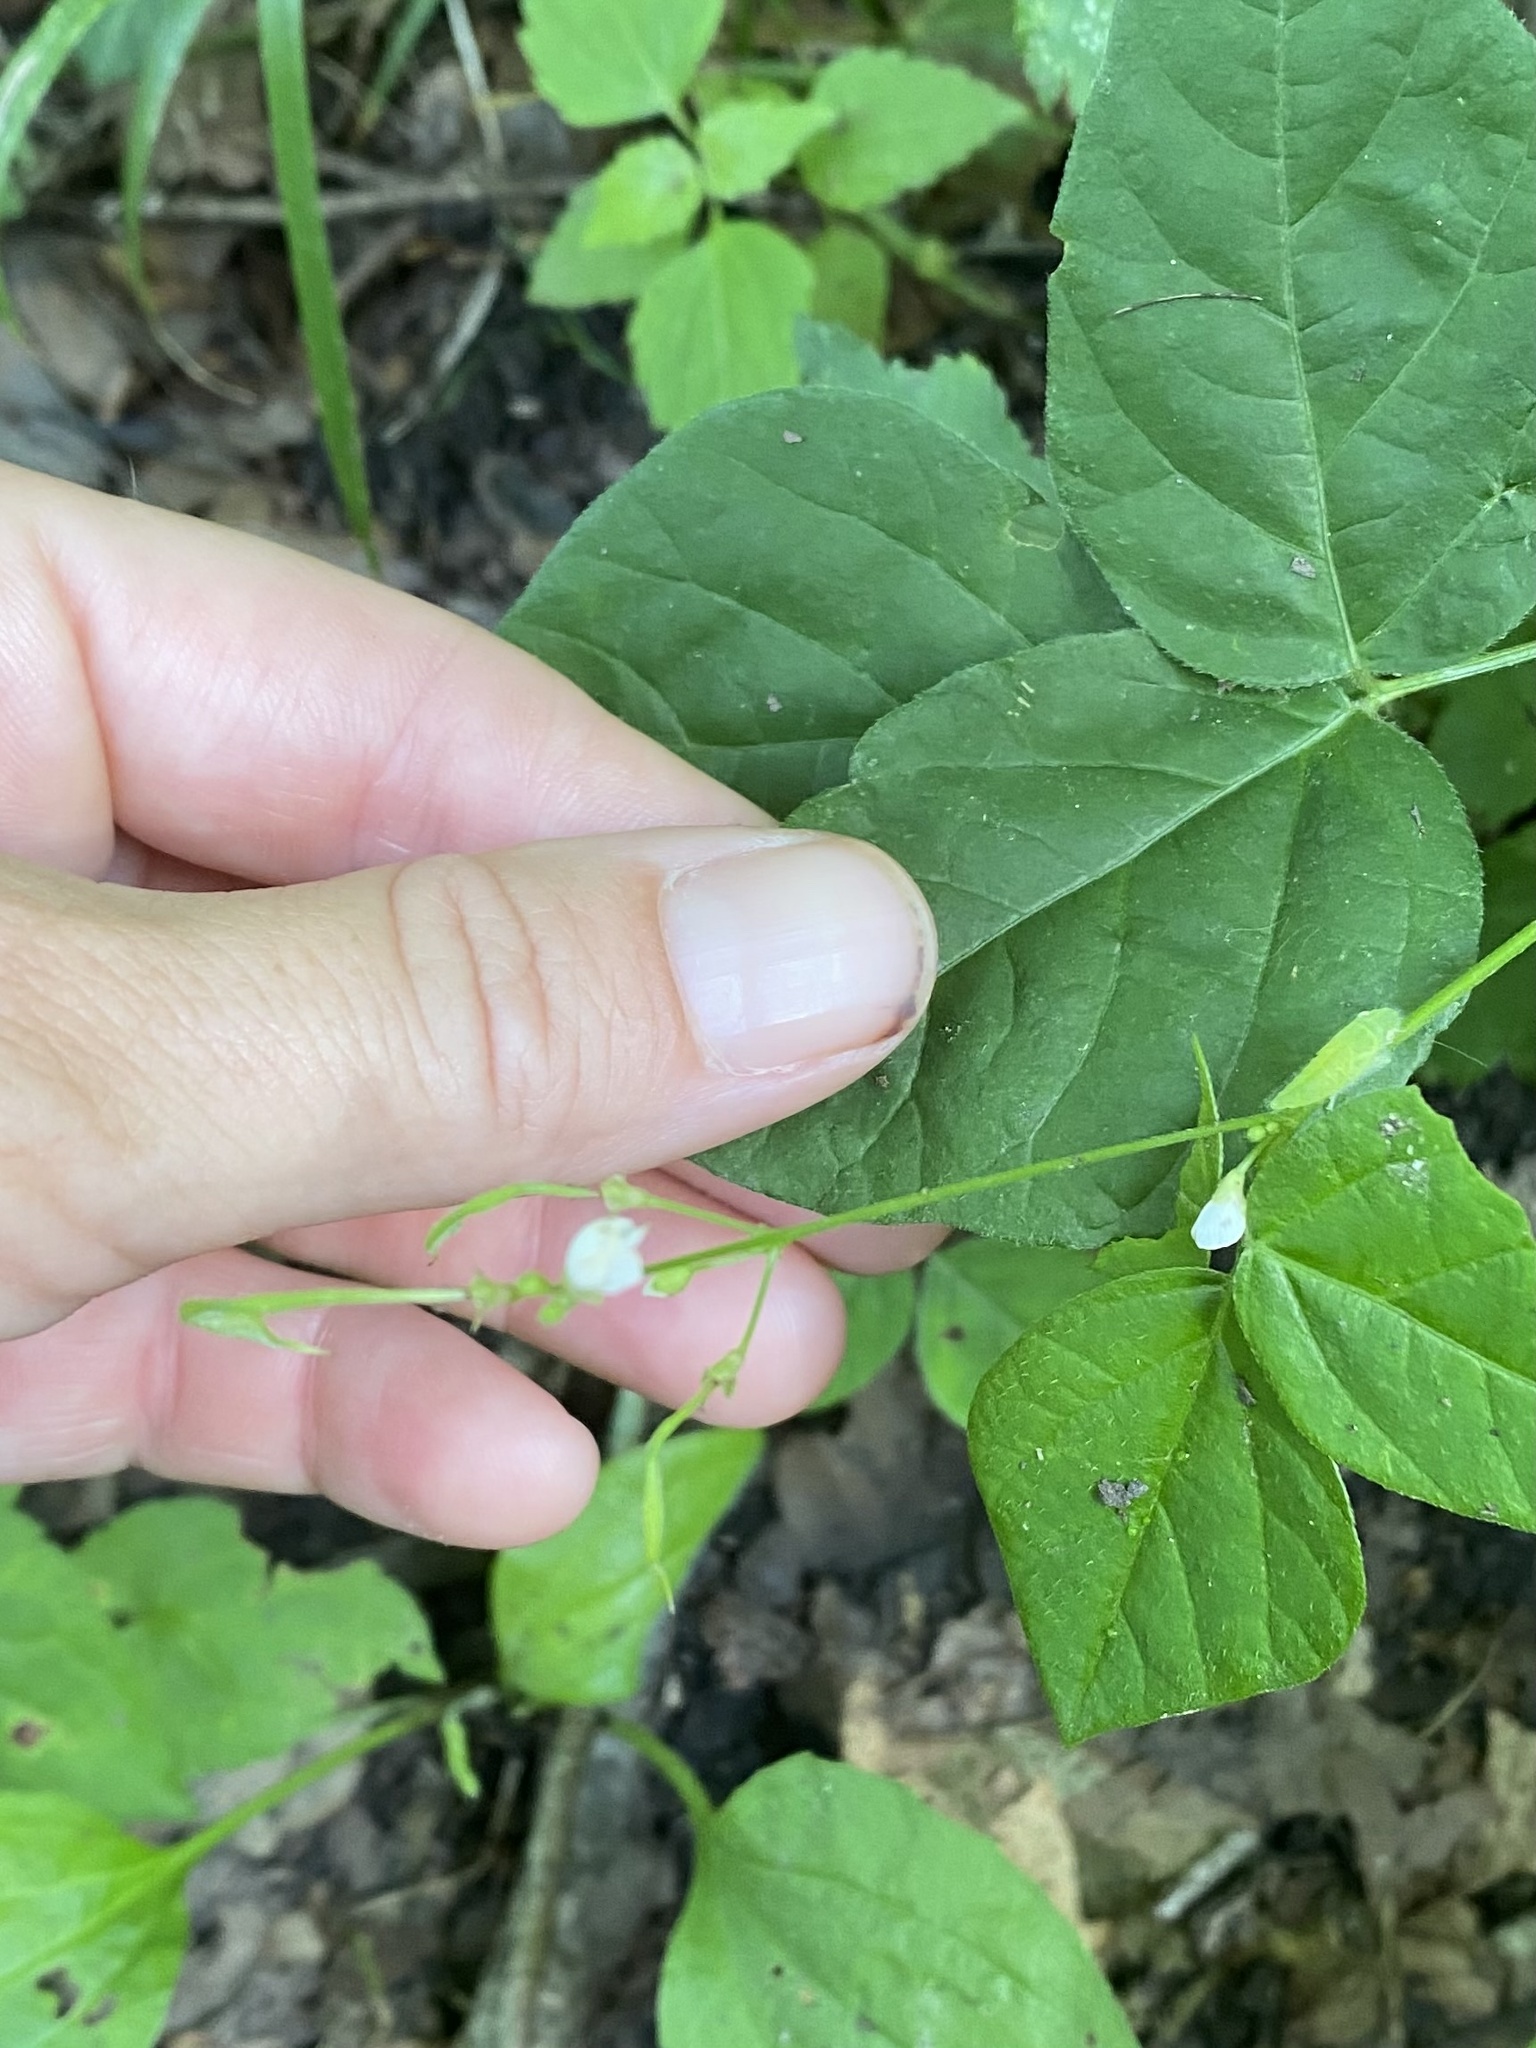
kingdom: Plantae
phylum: Tracheophyta
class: Magnoliopsida
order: Fabales
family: Fabaceae
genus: Hylodesmum
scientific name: Hylodesmum pauciflorum
